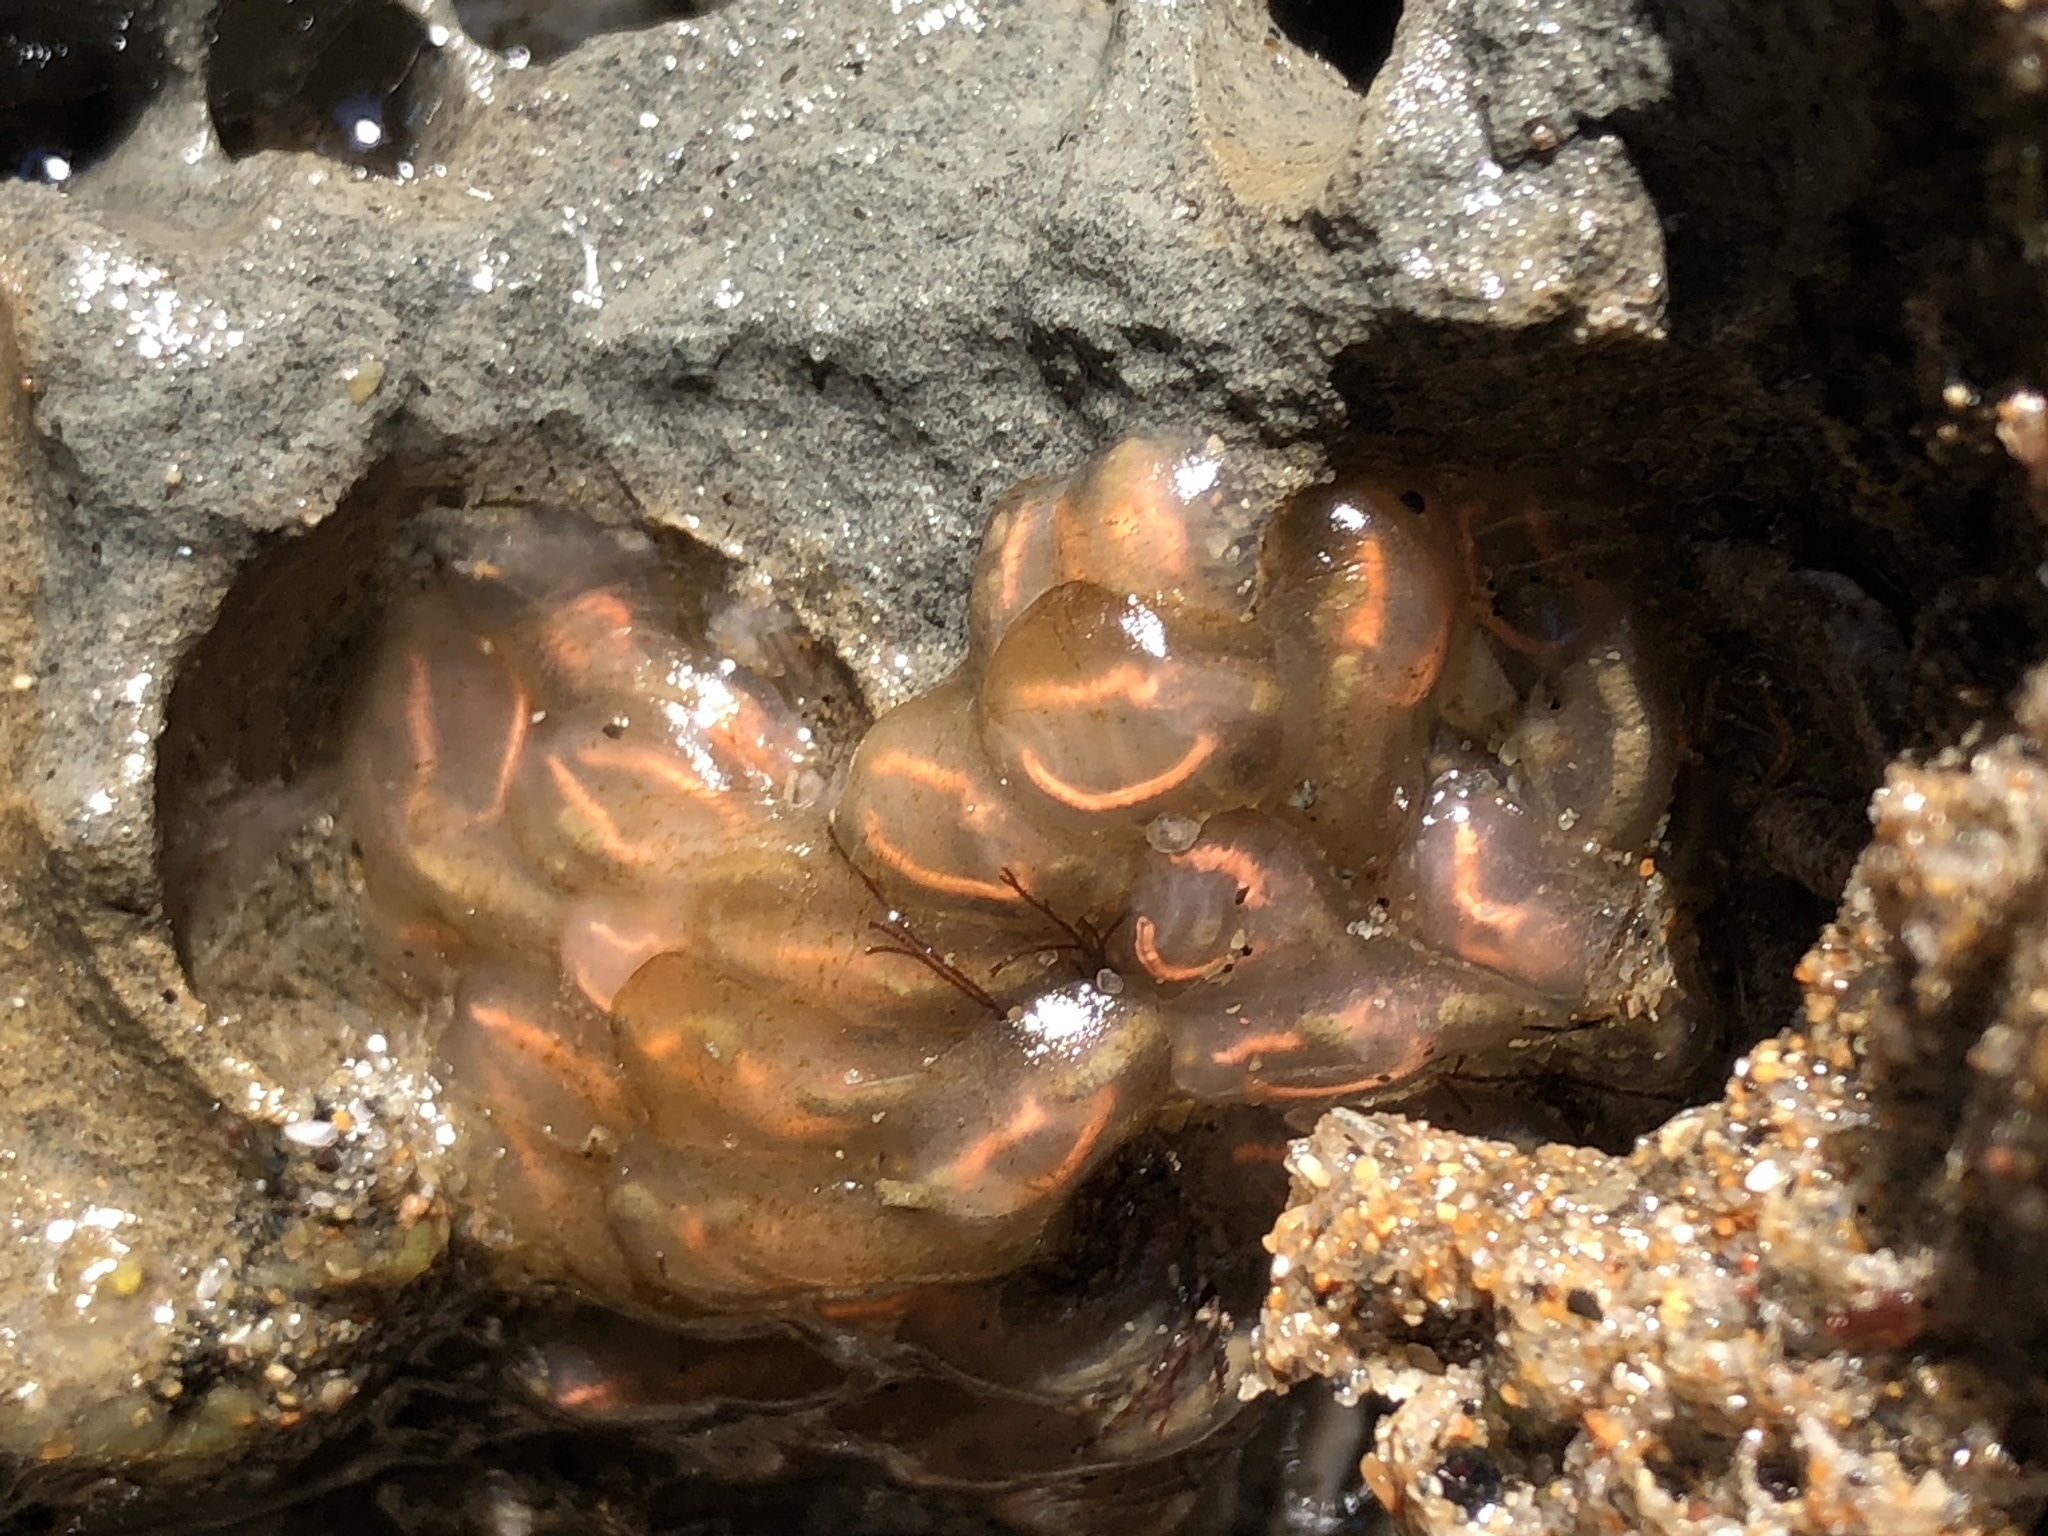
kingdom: Animalia
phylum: Chordata
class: Ascidiacea
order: Aplousobranchia
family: Clavelinidae
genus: Clavelina
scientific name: Clavelina huntsmani
